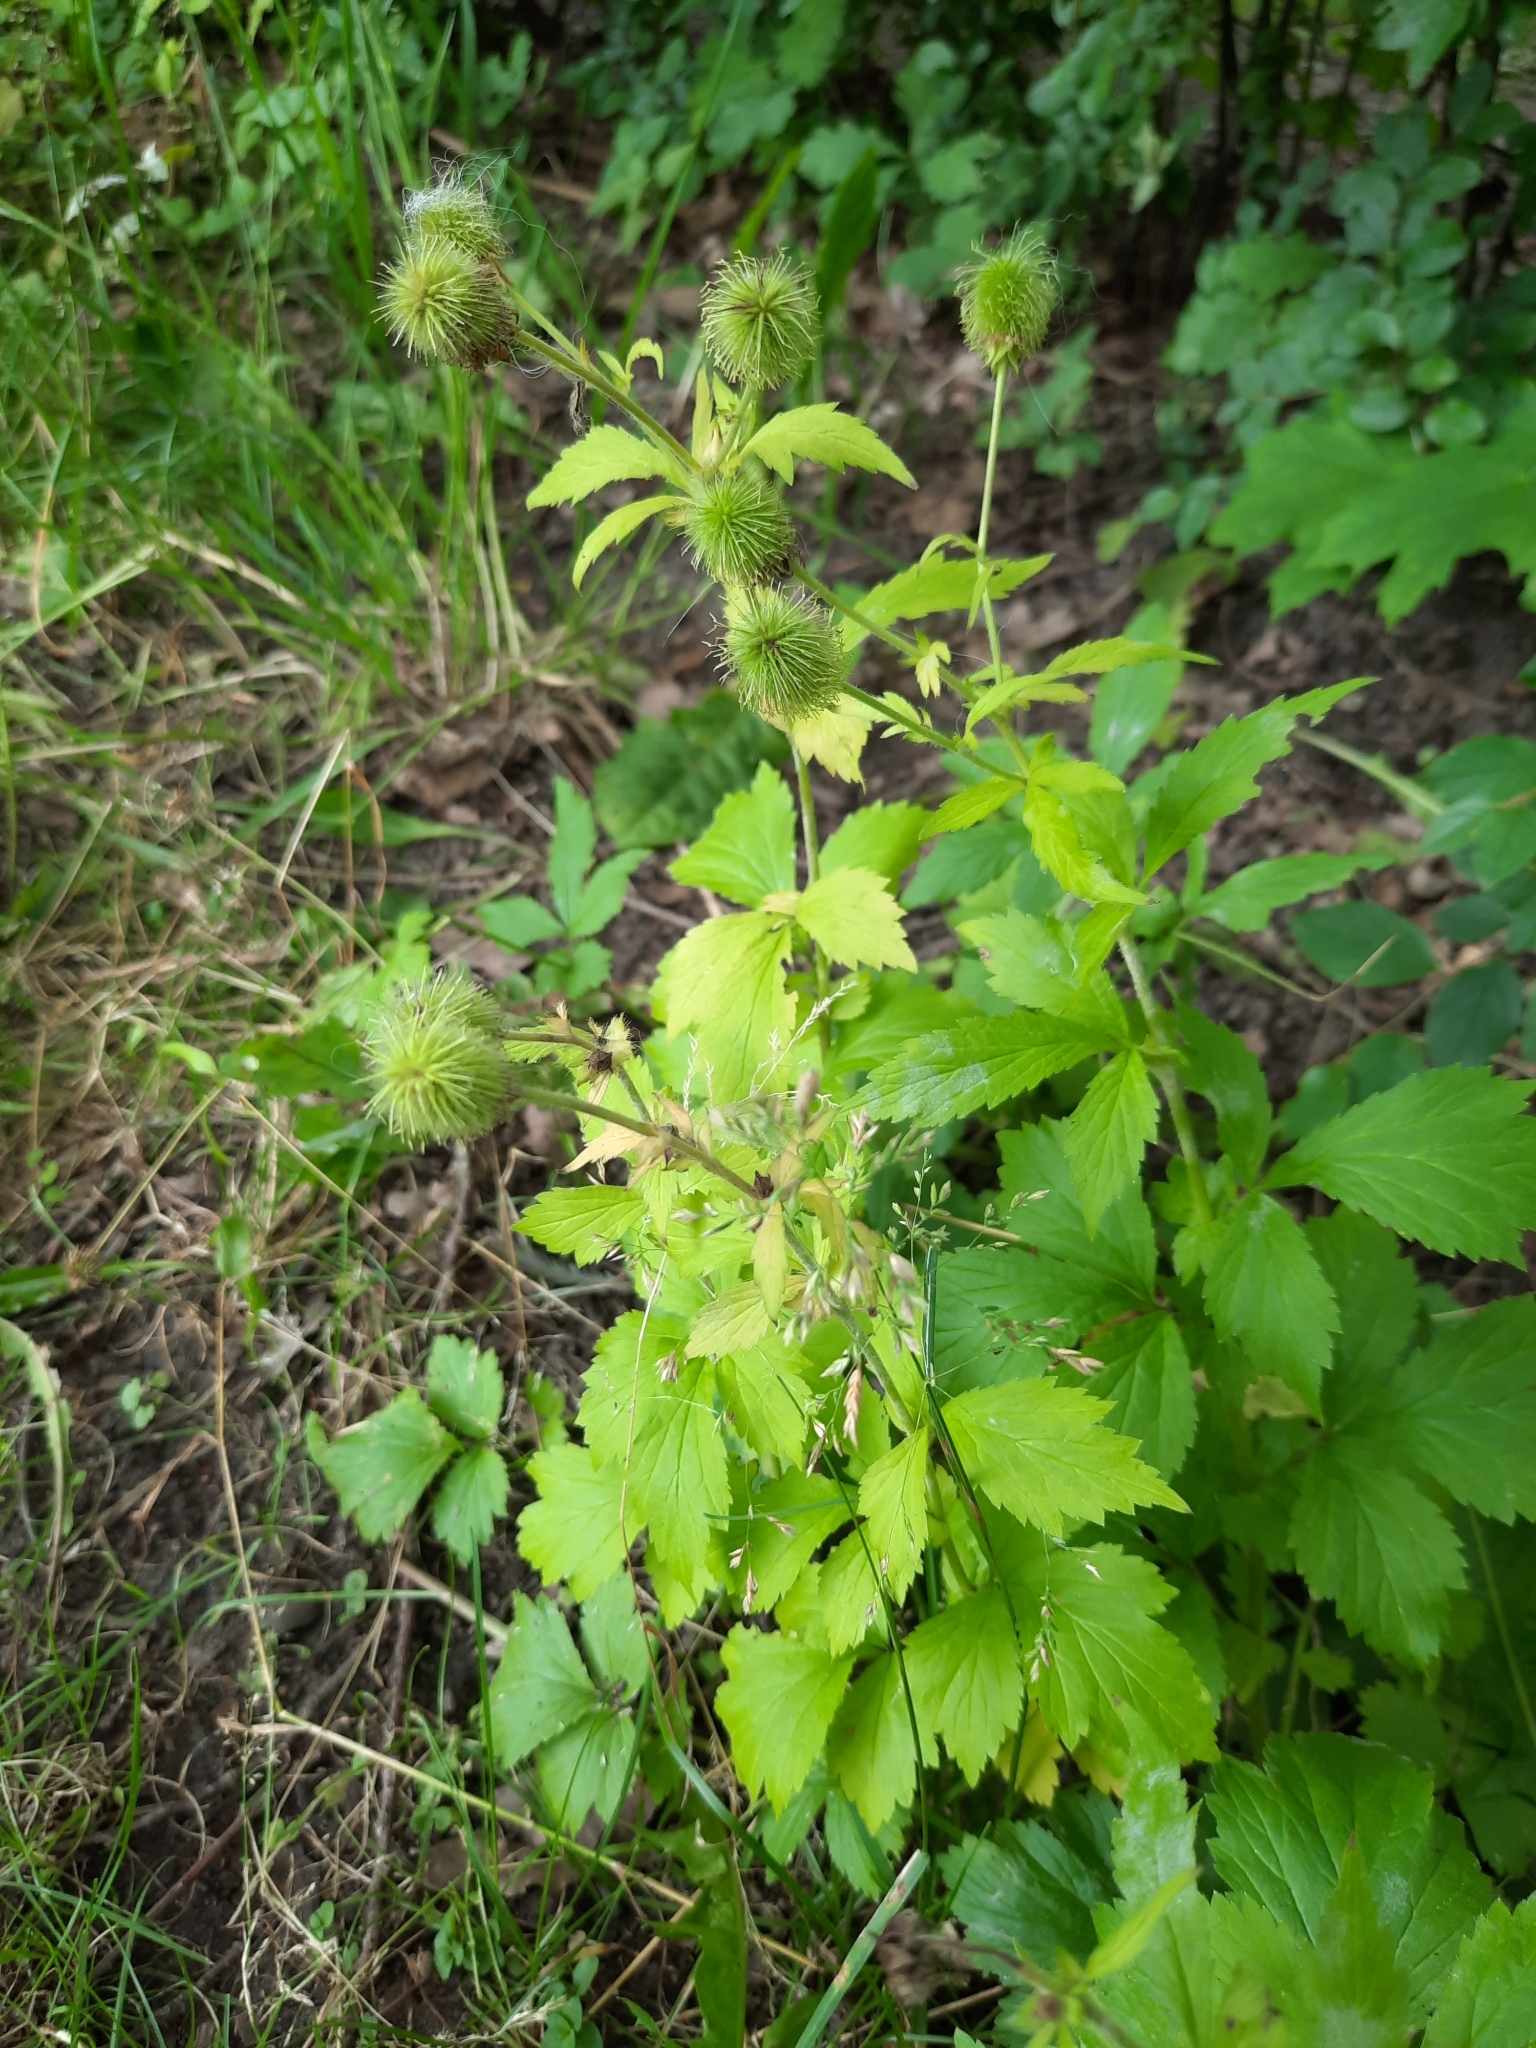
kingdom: Plantae
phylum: Tracheophyta
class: Magnoliopsida
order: Rosales
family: Rosaceae
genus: Geum
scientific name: Geum aleppicum
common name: Yellow avens
